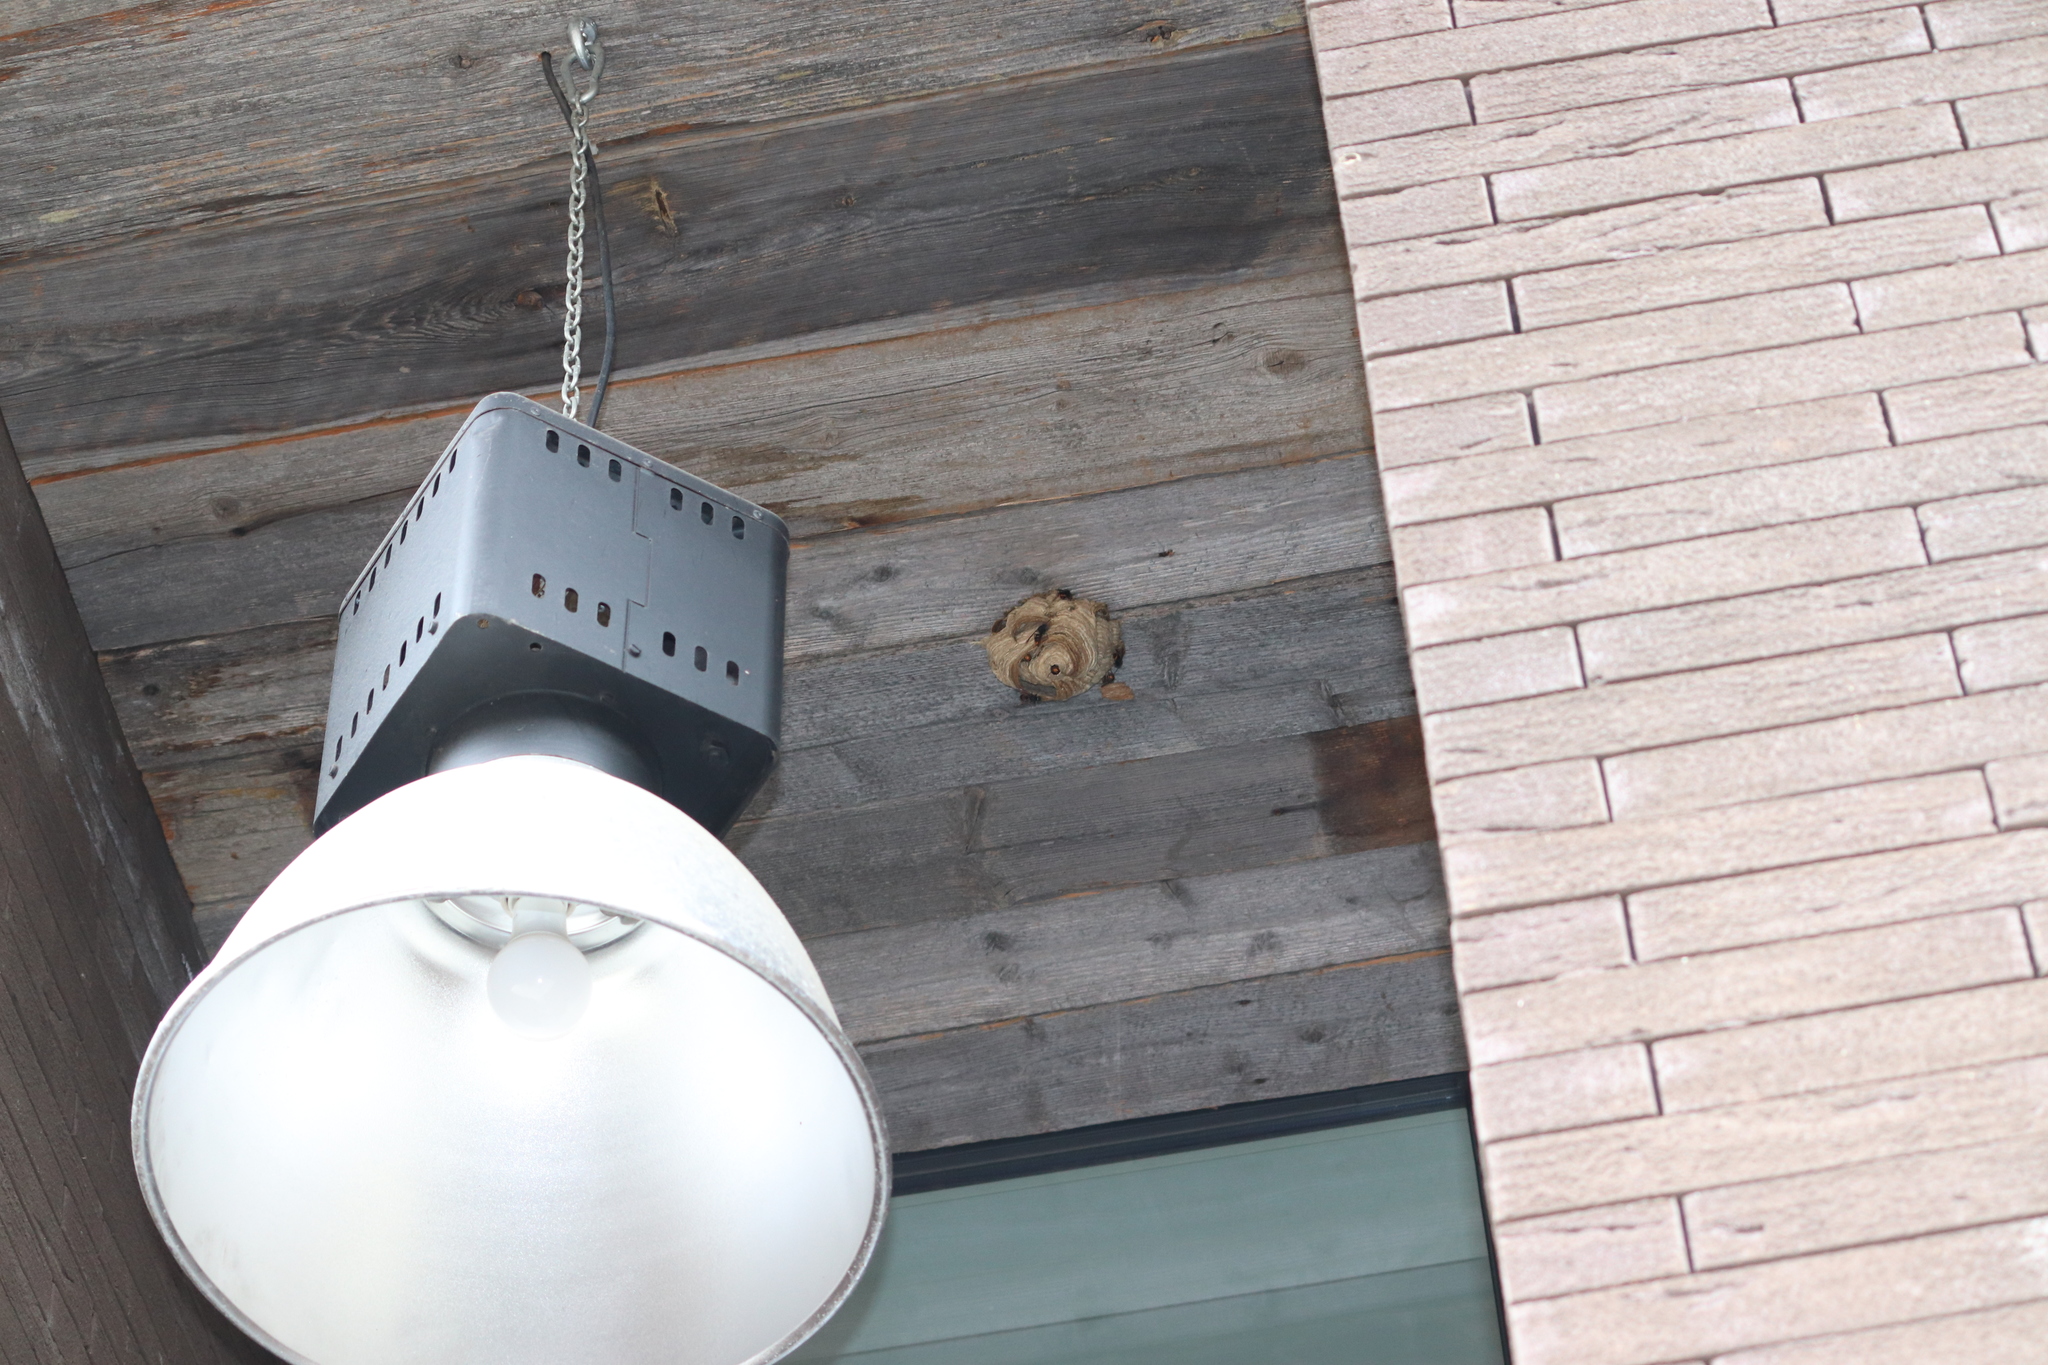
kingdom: Animalia
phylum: Arthropoda
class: Insecta
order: Hymenoptera
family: Vespidae
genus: Vespa
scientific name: Vespa velutina
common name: Asian hornet
